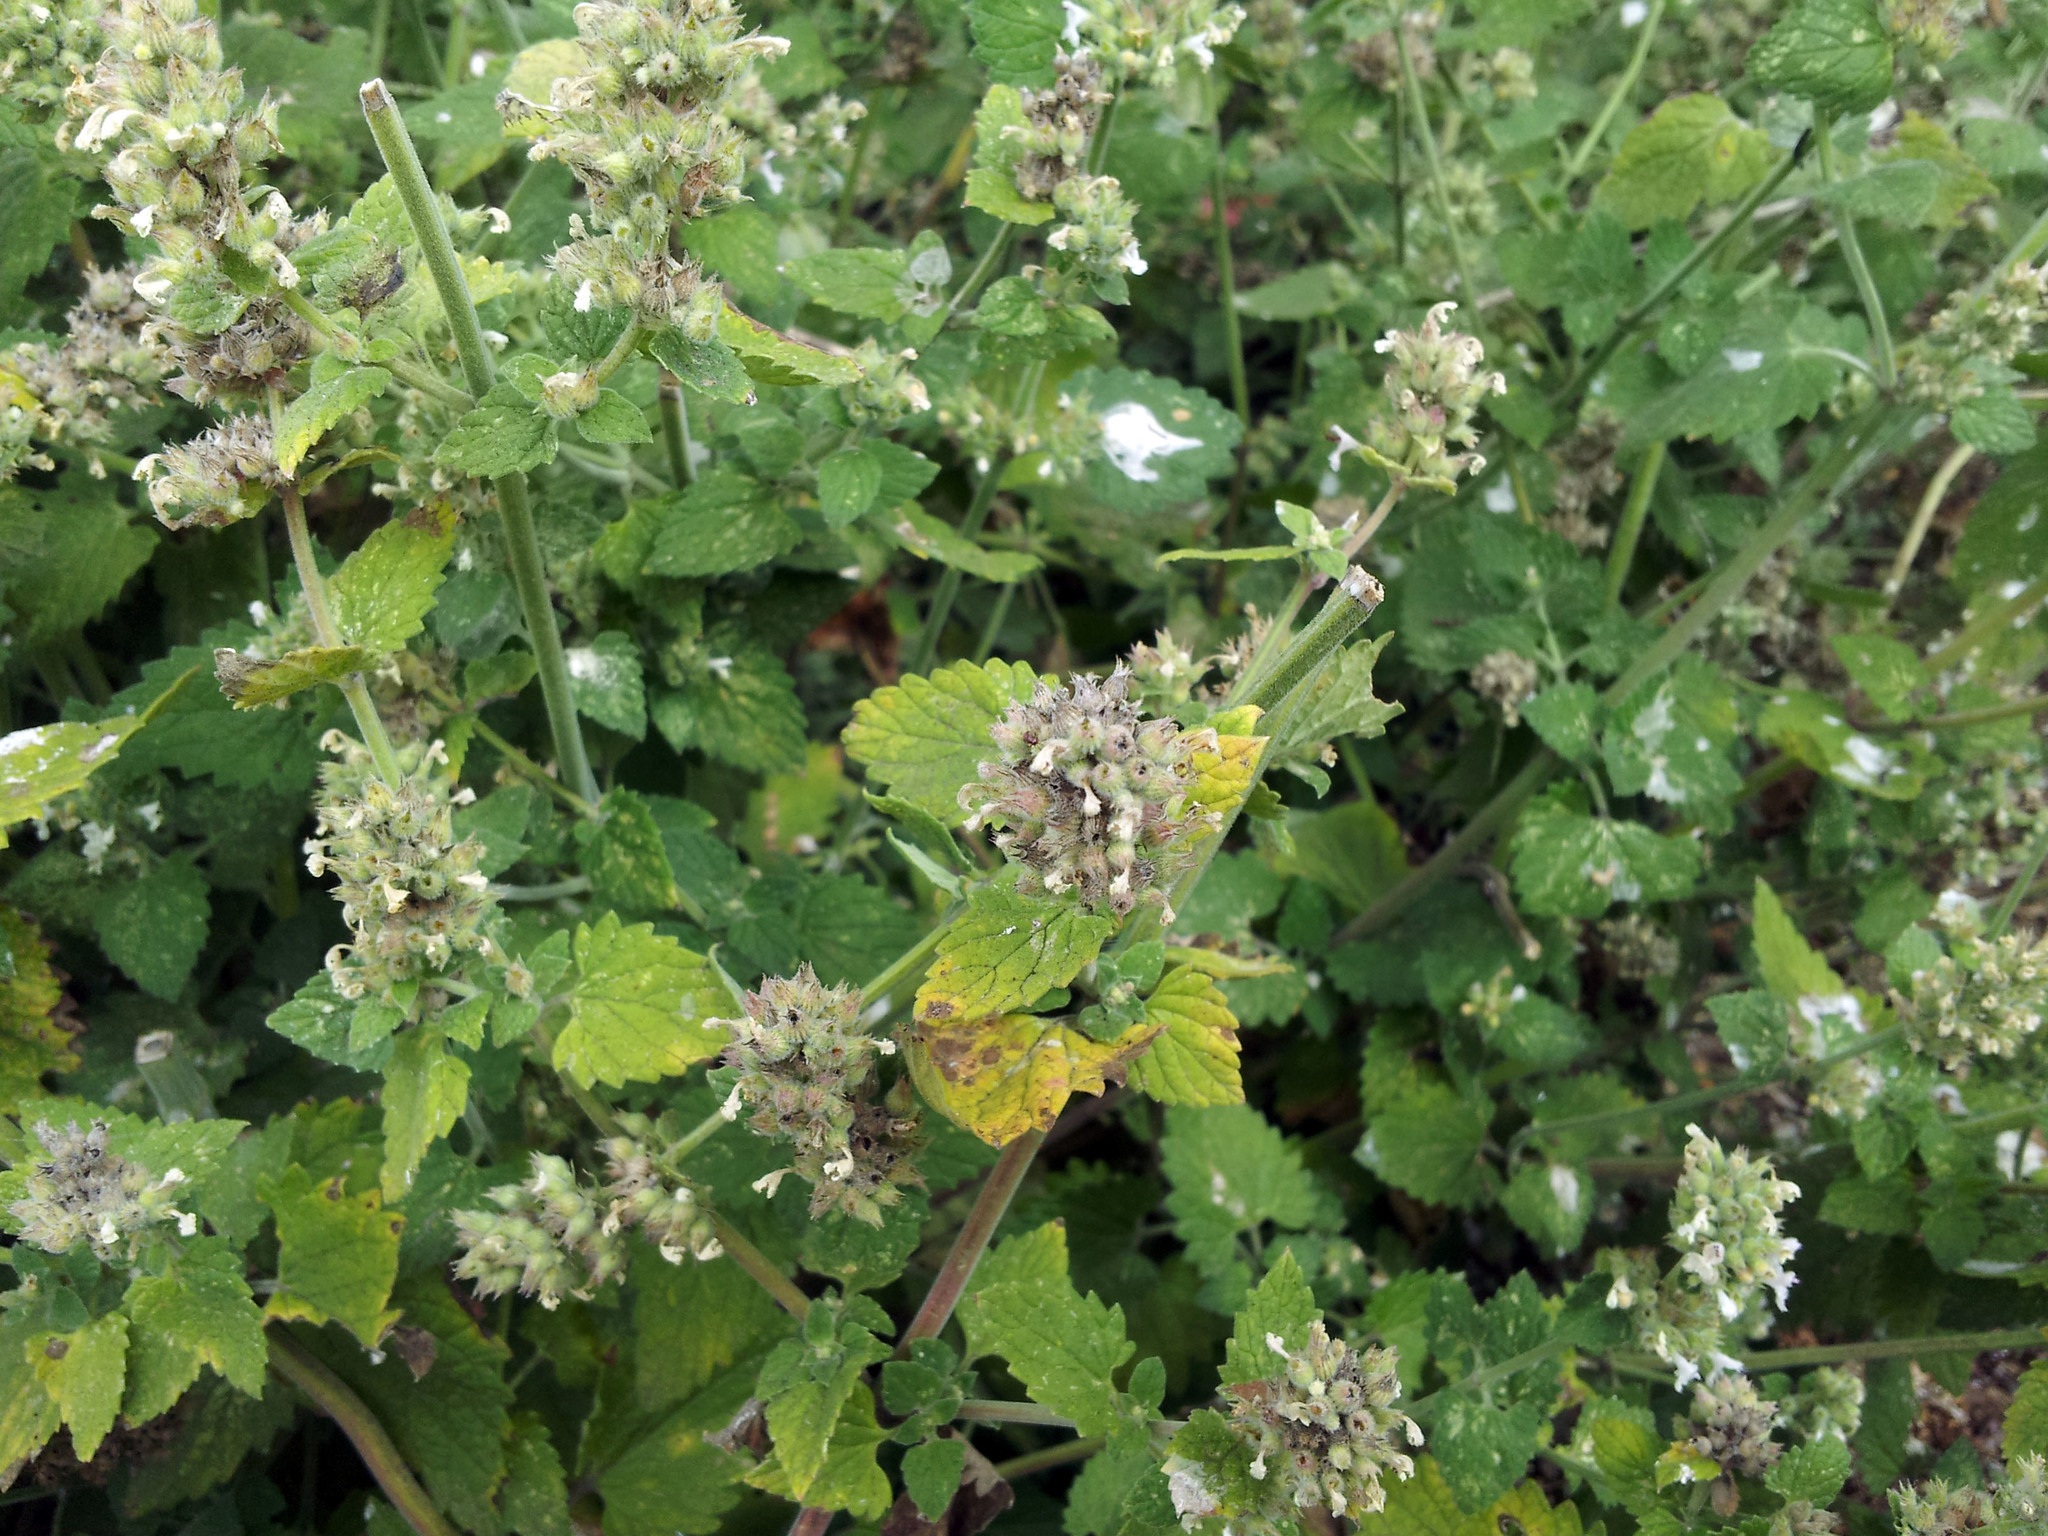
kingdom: Plantae
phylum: Tracheophyta
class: Magnoliopsida
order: Lamiales
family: Lamiaceae
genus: Nepeta
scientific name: Nepeta cataria
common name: Catnip
